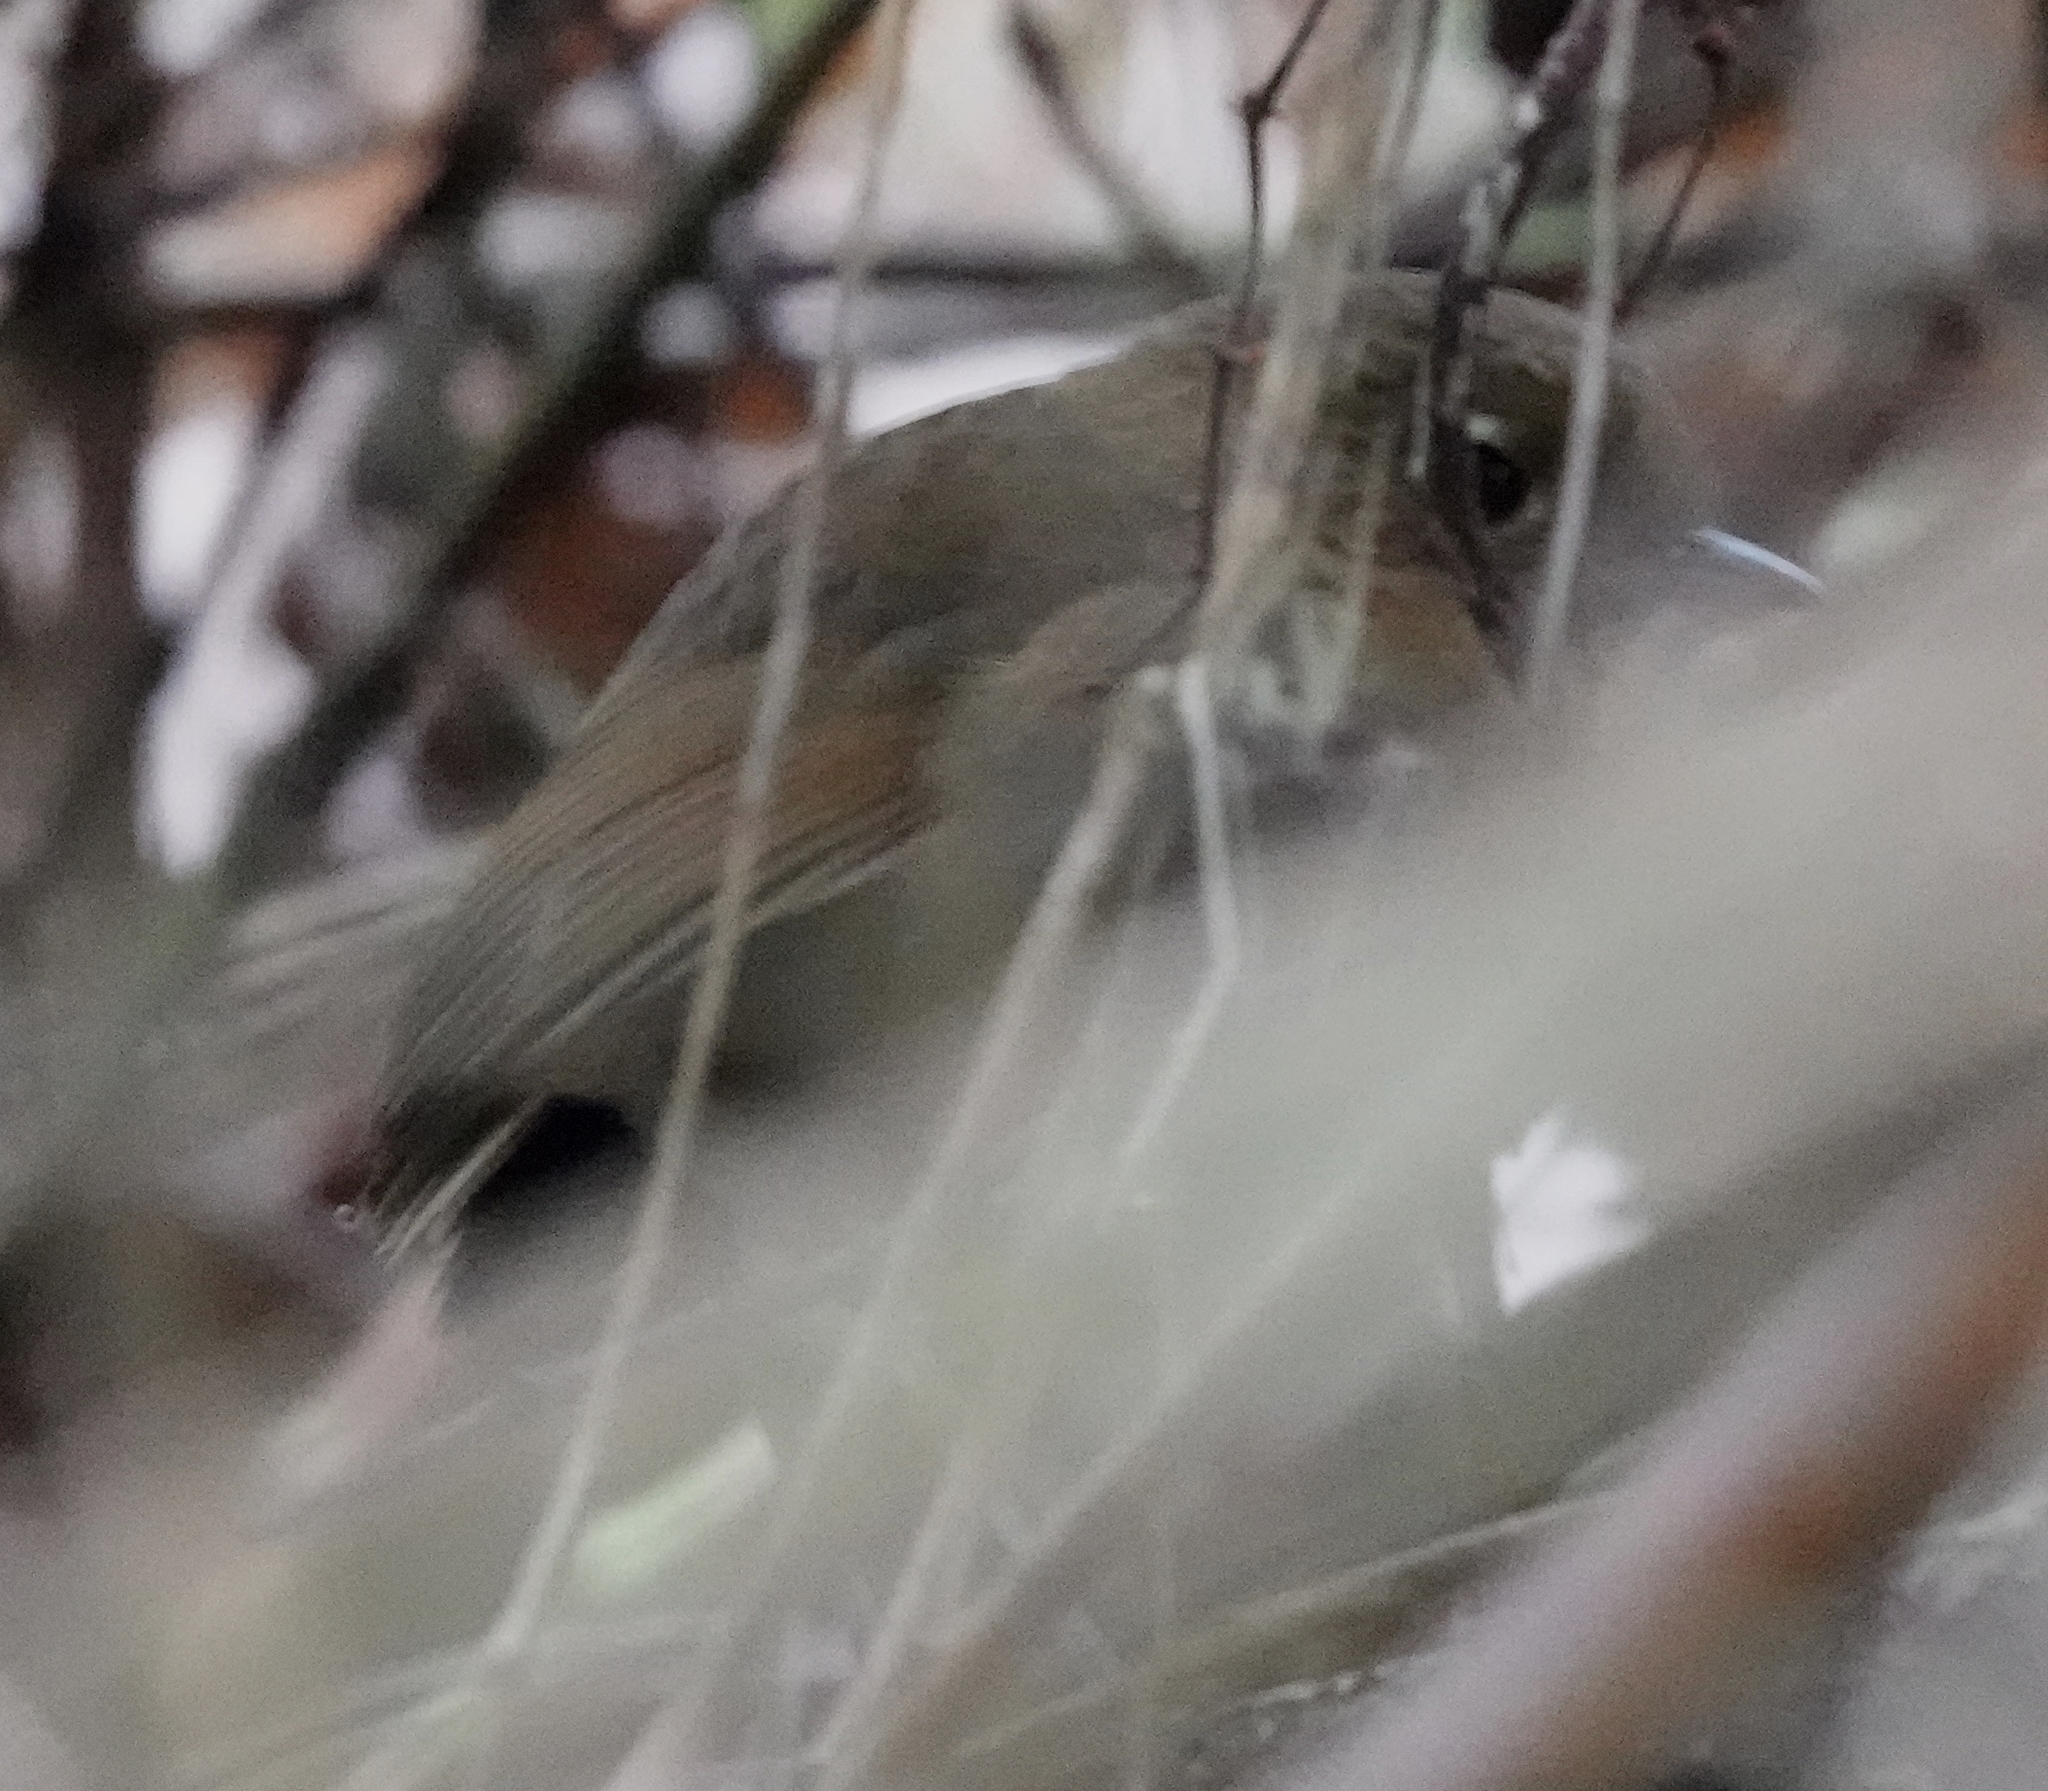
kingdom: Animalia
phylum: Chordata
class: Aves
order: Passeriformes
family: Grallariidae
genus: Grallaria
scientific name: Grallaria saltuensis
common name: Perija antpitta
